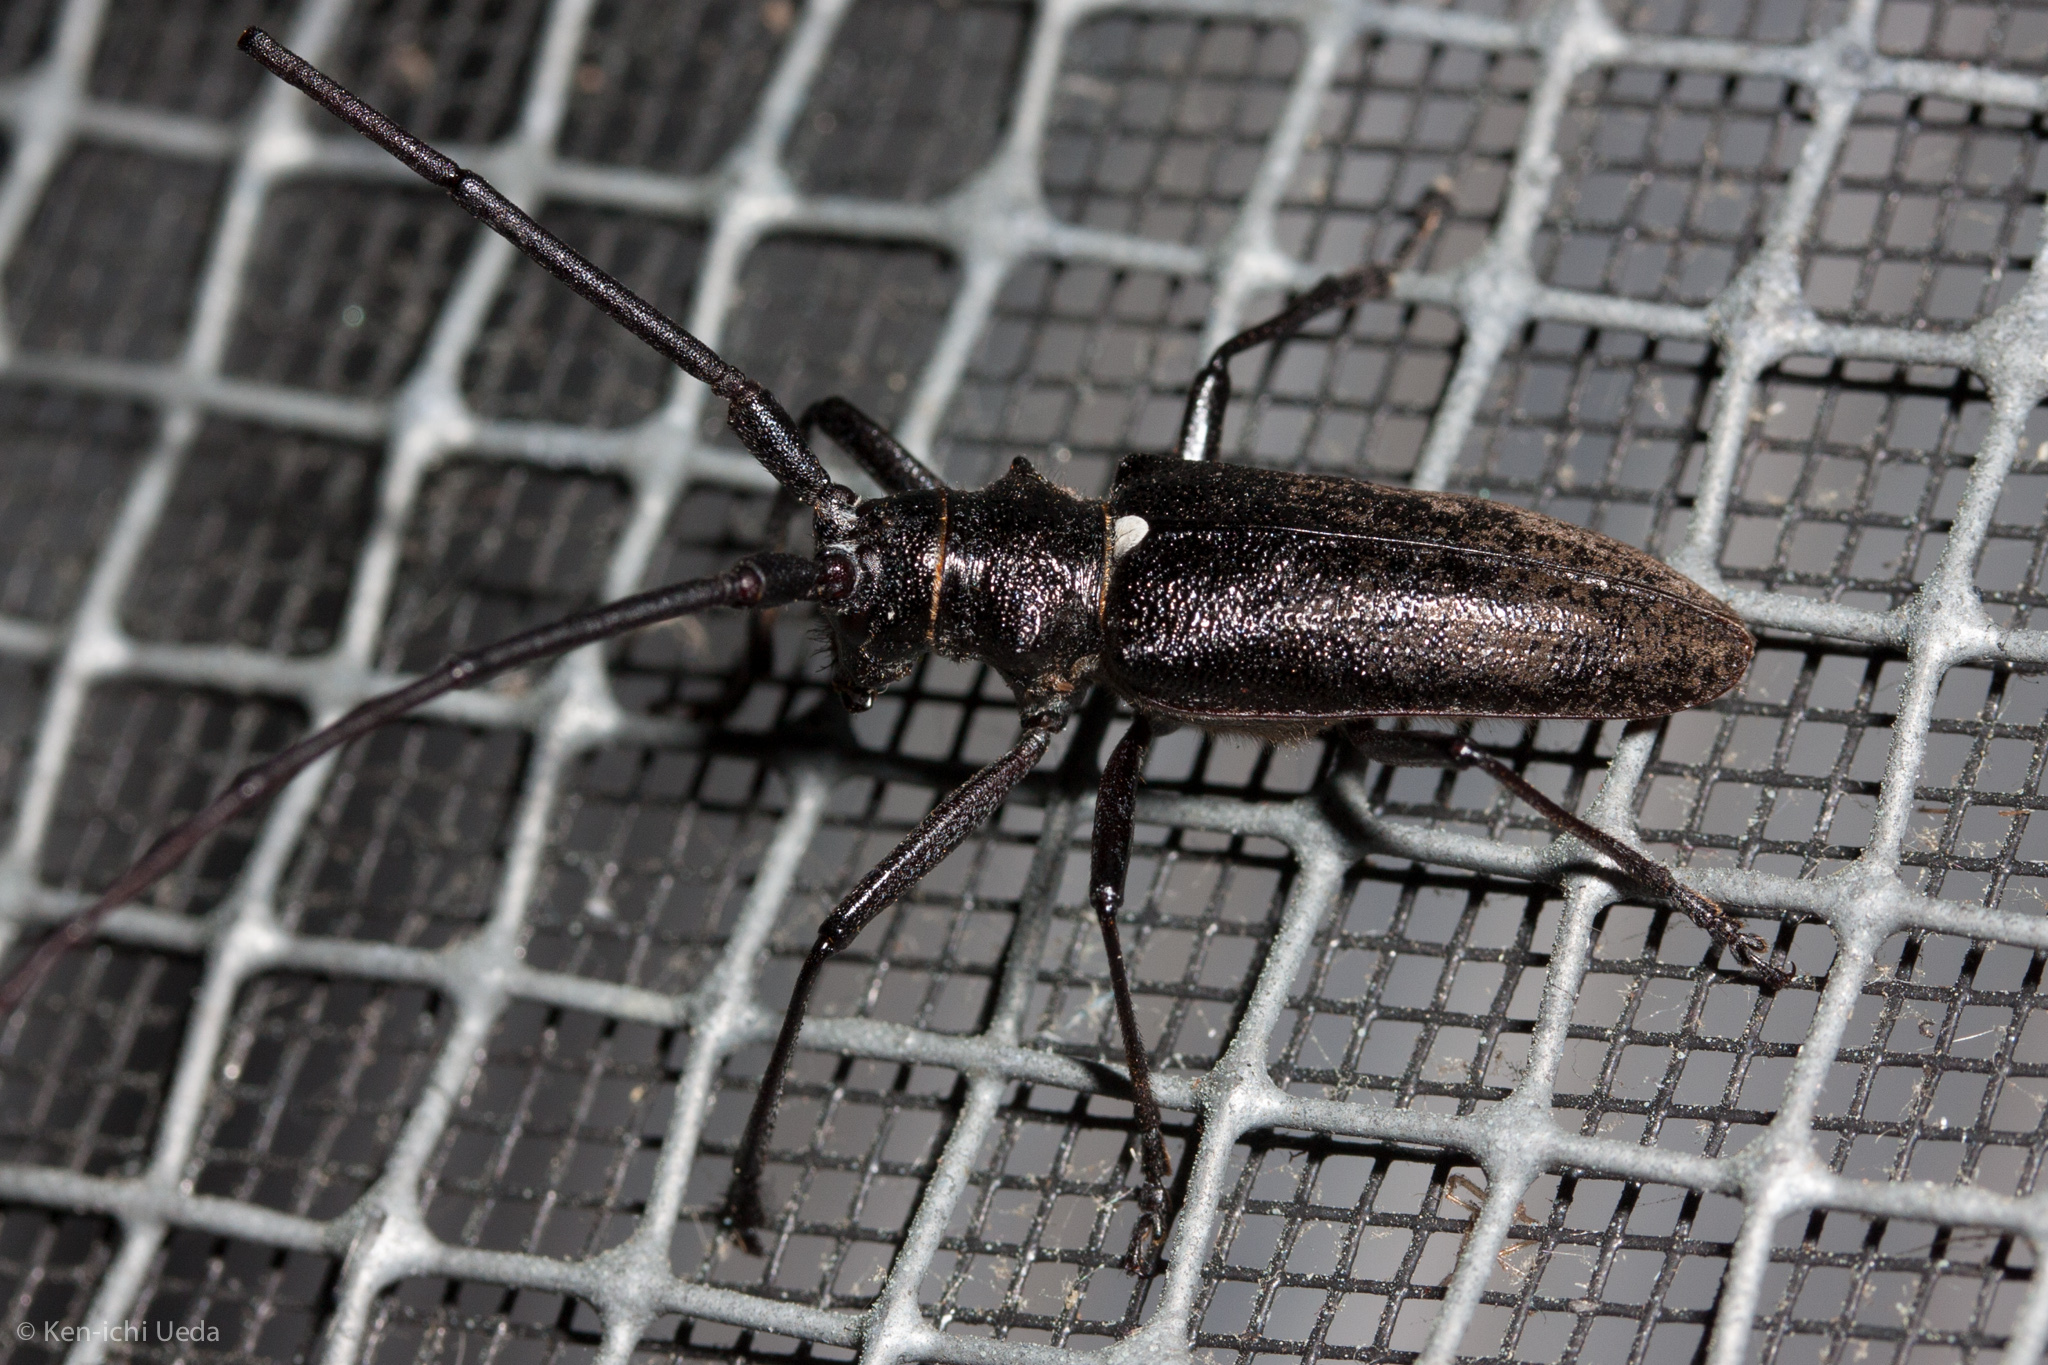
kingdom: Animalia
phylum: Arthropoda
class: Insecta
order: Coleoptera
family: Cerambycidae
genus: Monochamus
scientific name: Monochamus scutellatus
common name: White-spotted sawyer beetle
